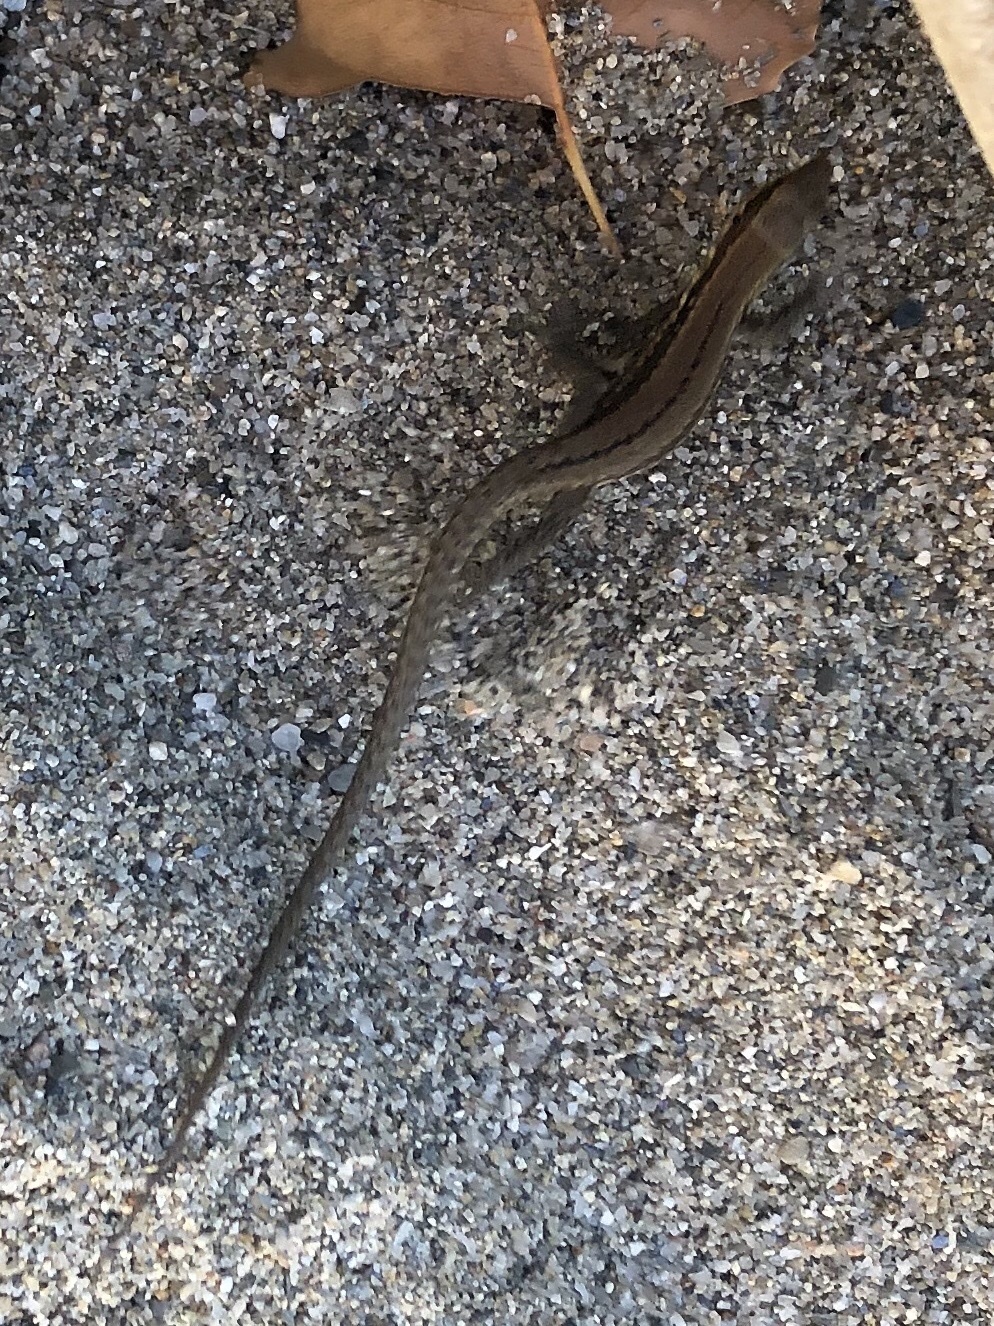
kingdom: Animalia
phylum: Chordata
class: Squamata
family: Lacertidae
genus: Podarcis
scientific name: Podarcis muralis
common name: Common wall lizard
